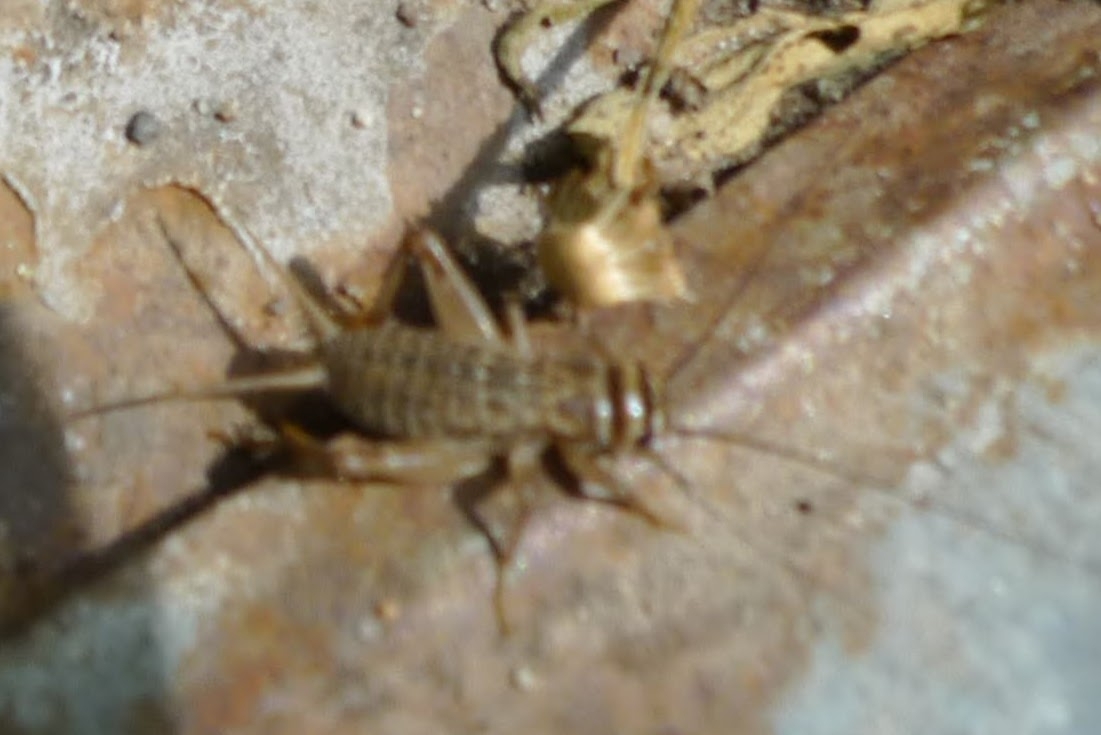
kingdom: Animalia
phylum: Arthropoda
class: Insecta
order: Orthoptera
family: Gryllidae
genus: Acheta
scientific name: Acheta domesticus
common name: House cricket
